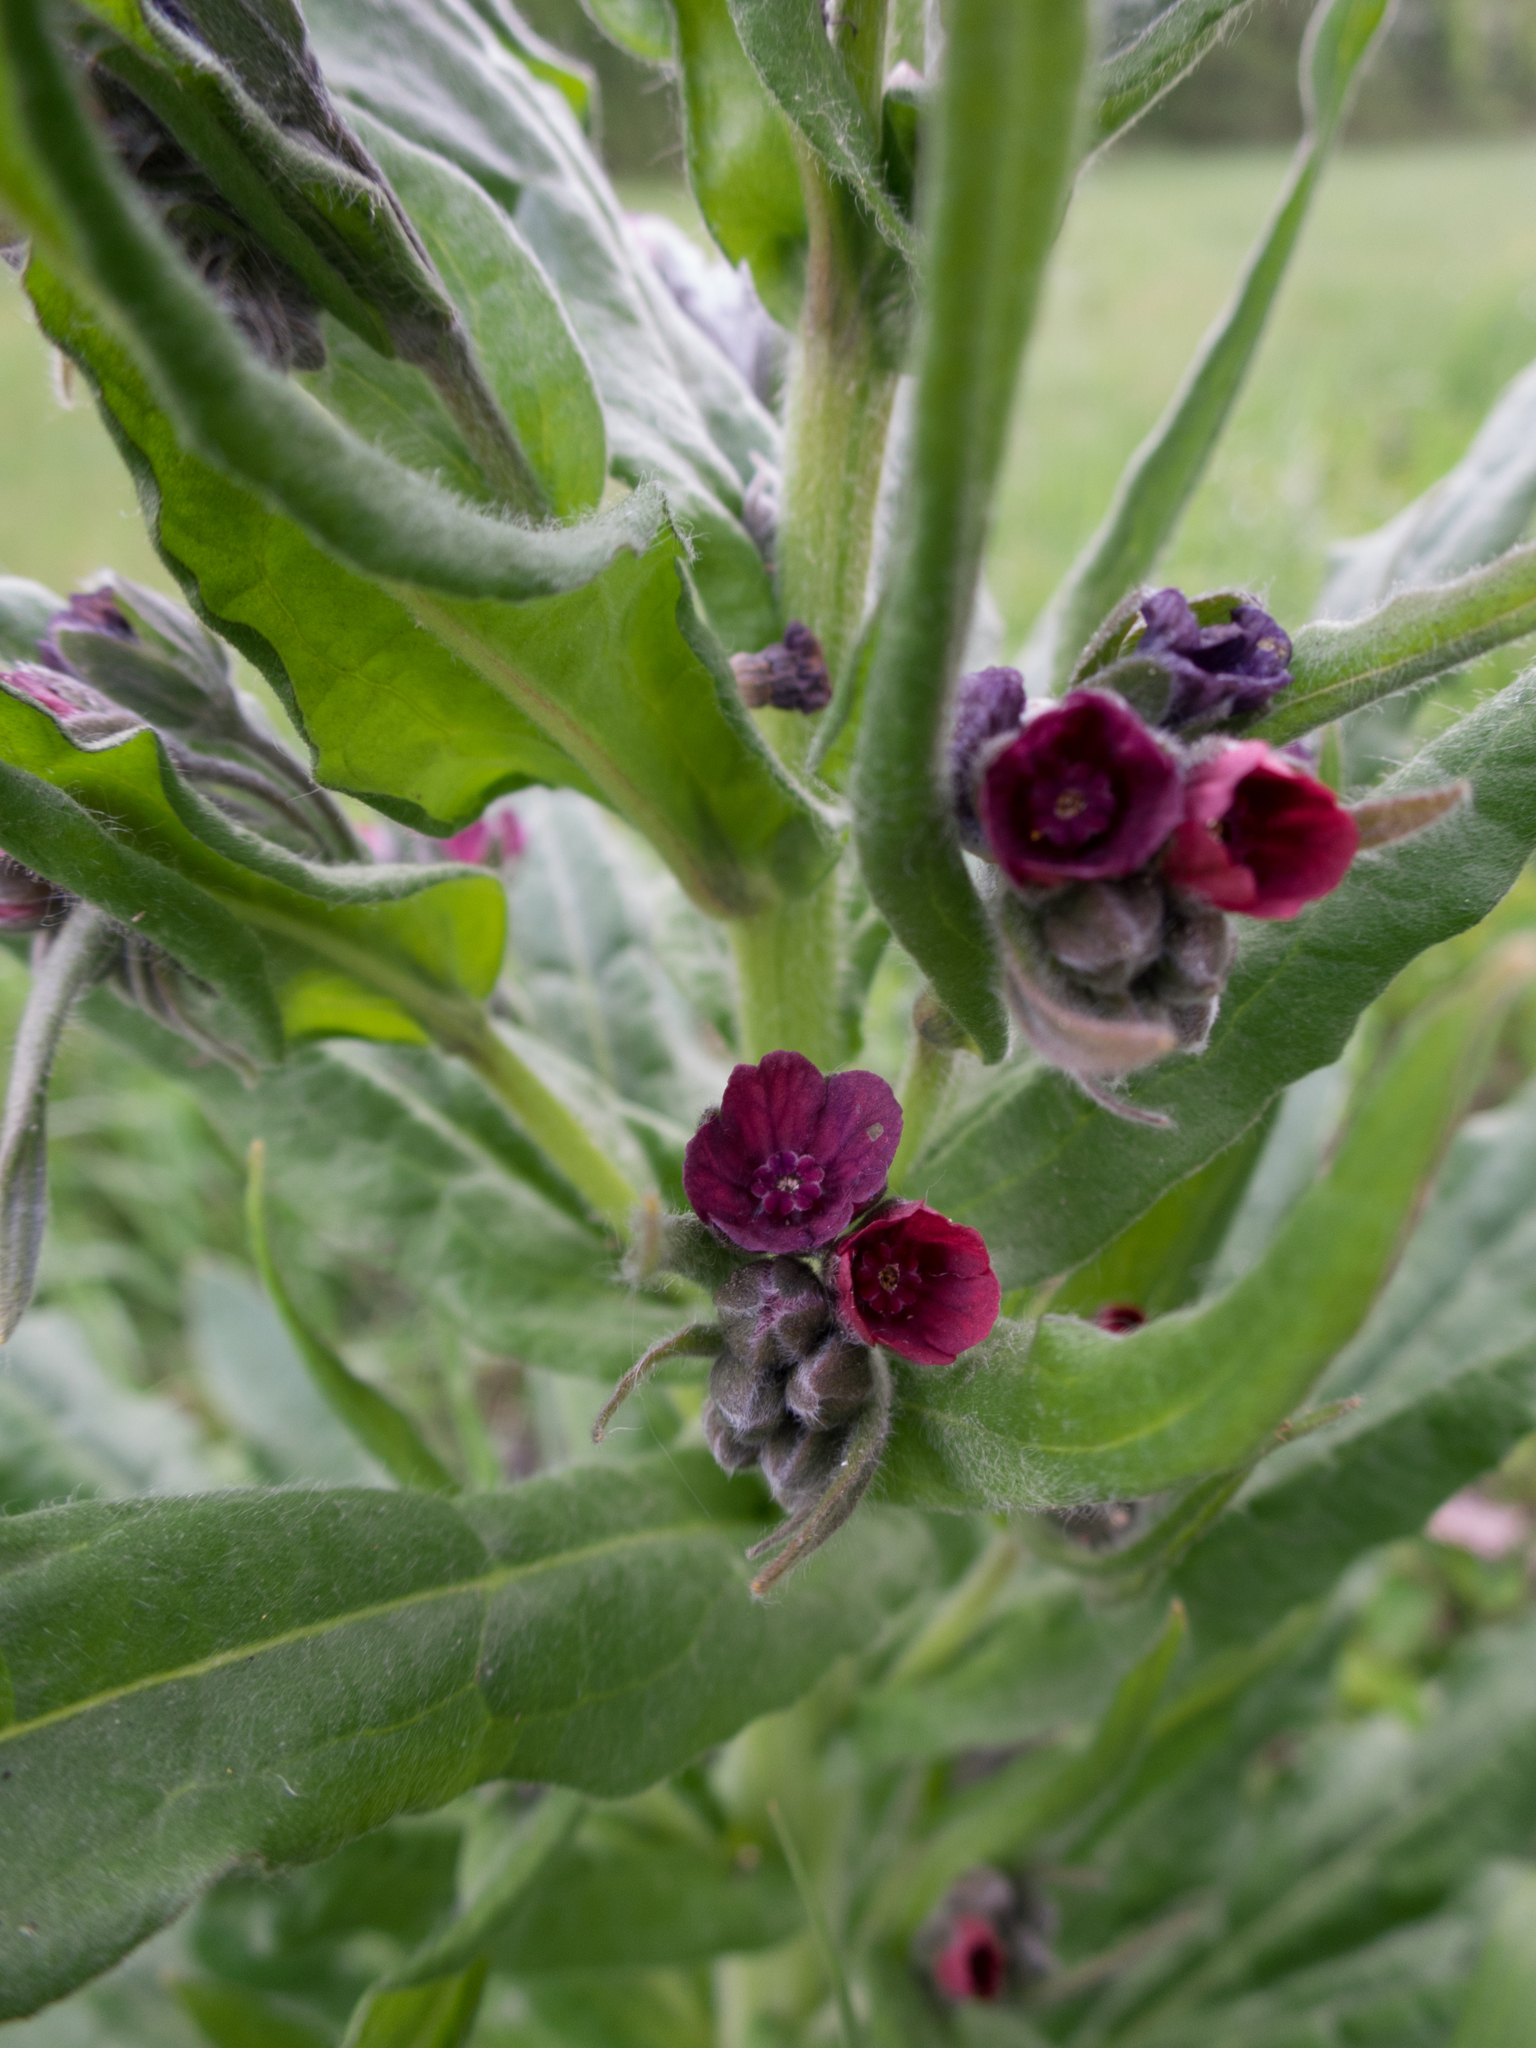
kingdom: Plantae
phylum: Tracheophyta
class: Magnoliopsida
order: Boraginales
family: Boraginaceae
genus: Cynoglossum
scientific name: Cynoglossum officinale
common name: Hound's-tongue
